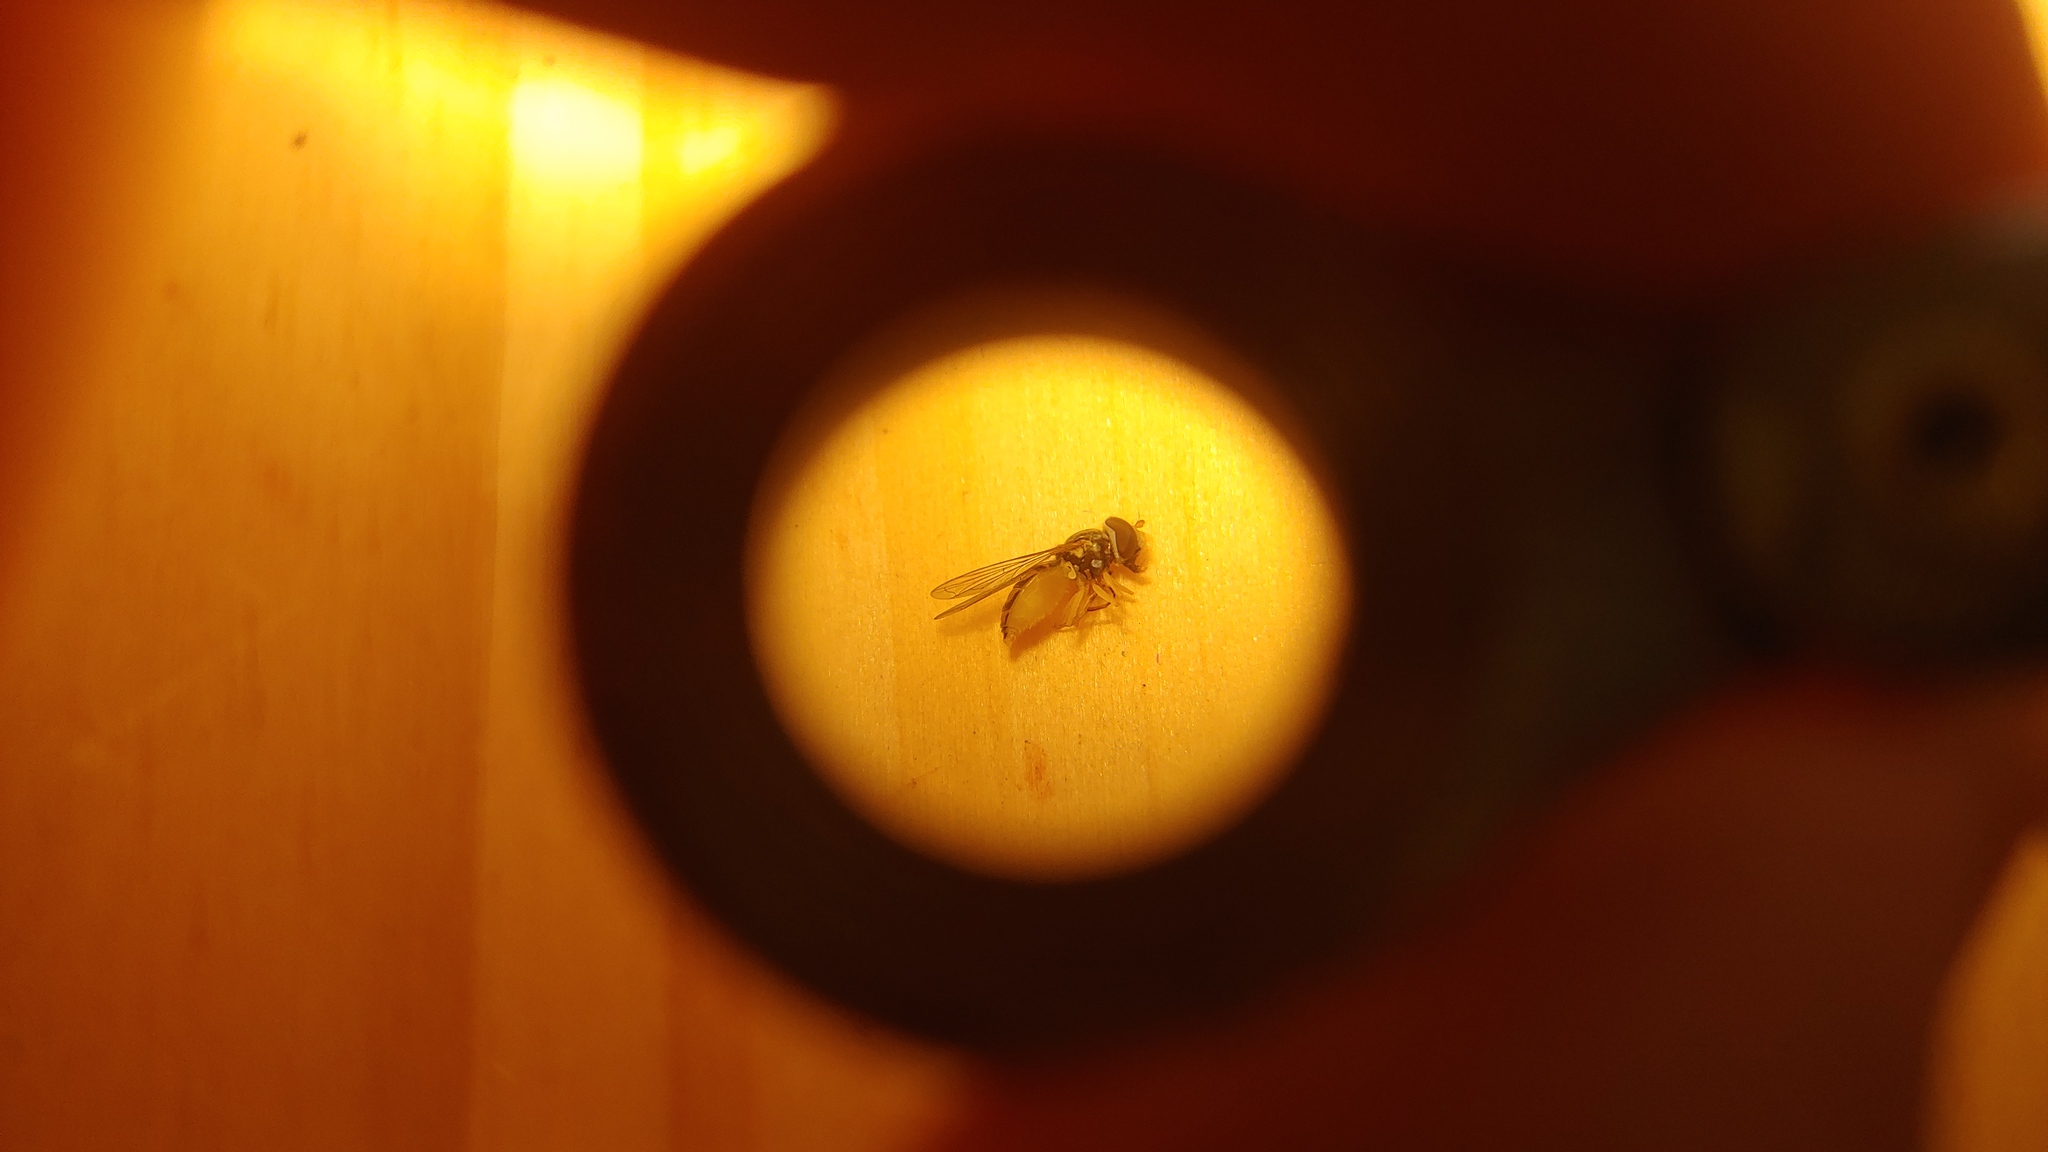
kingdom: Animalia
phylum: Arthropoda
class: Insecta
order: Diptera
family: Syrphidae
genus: Toxomerus
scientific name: Toxomerus marginatus
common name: Syrphid fly
